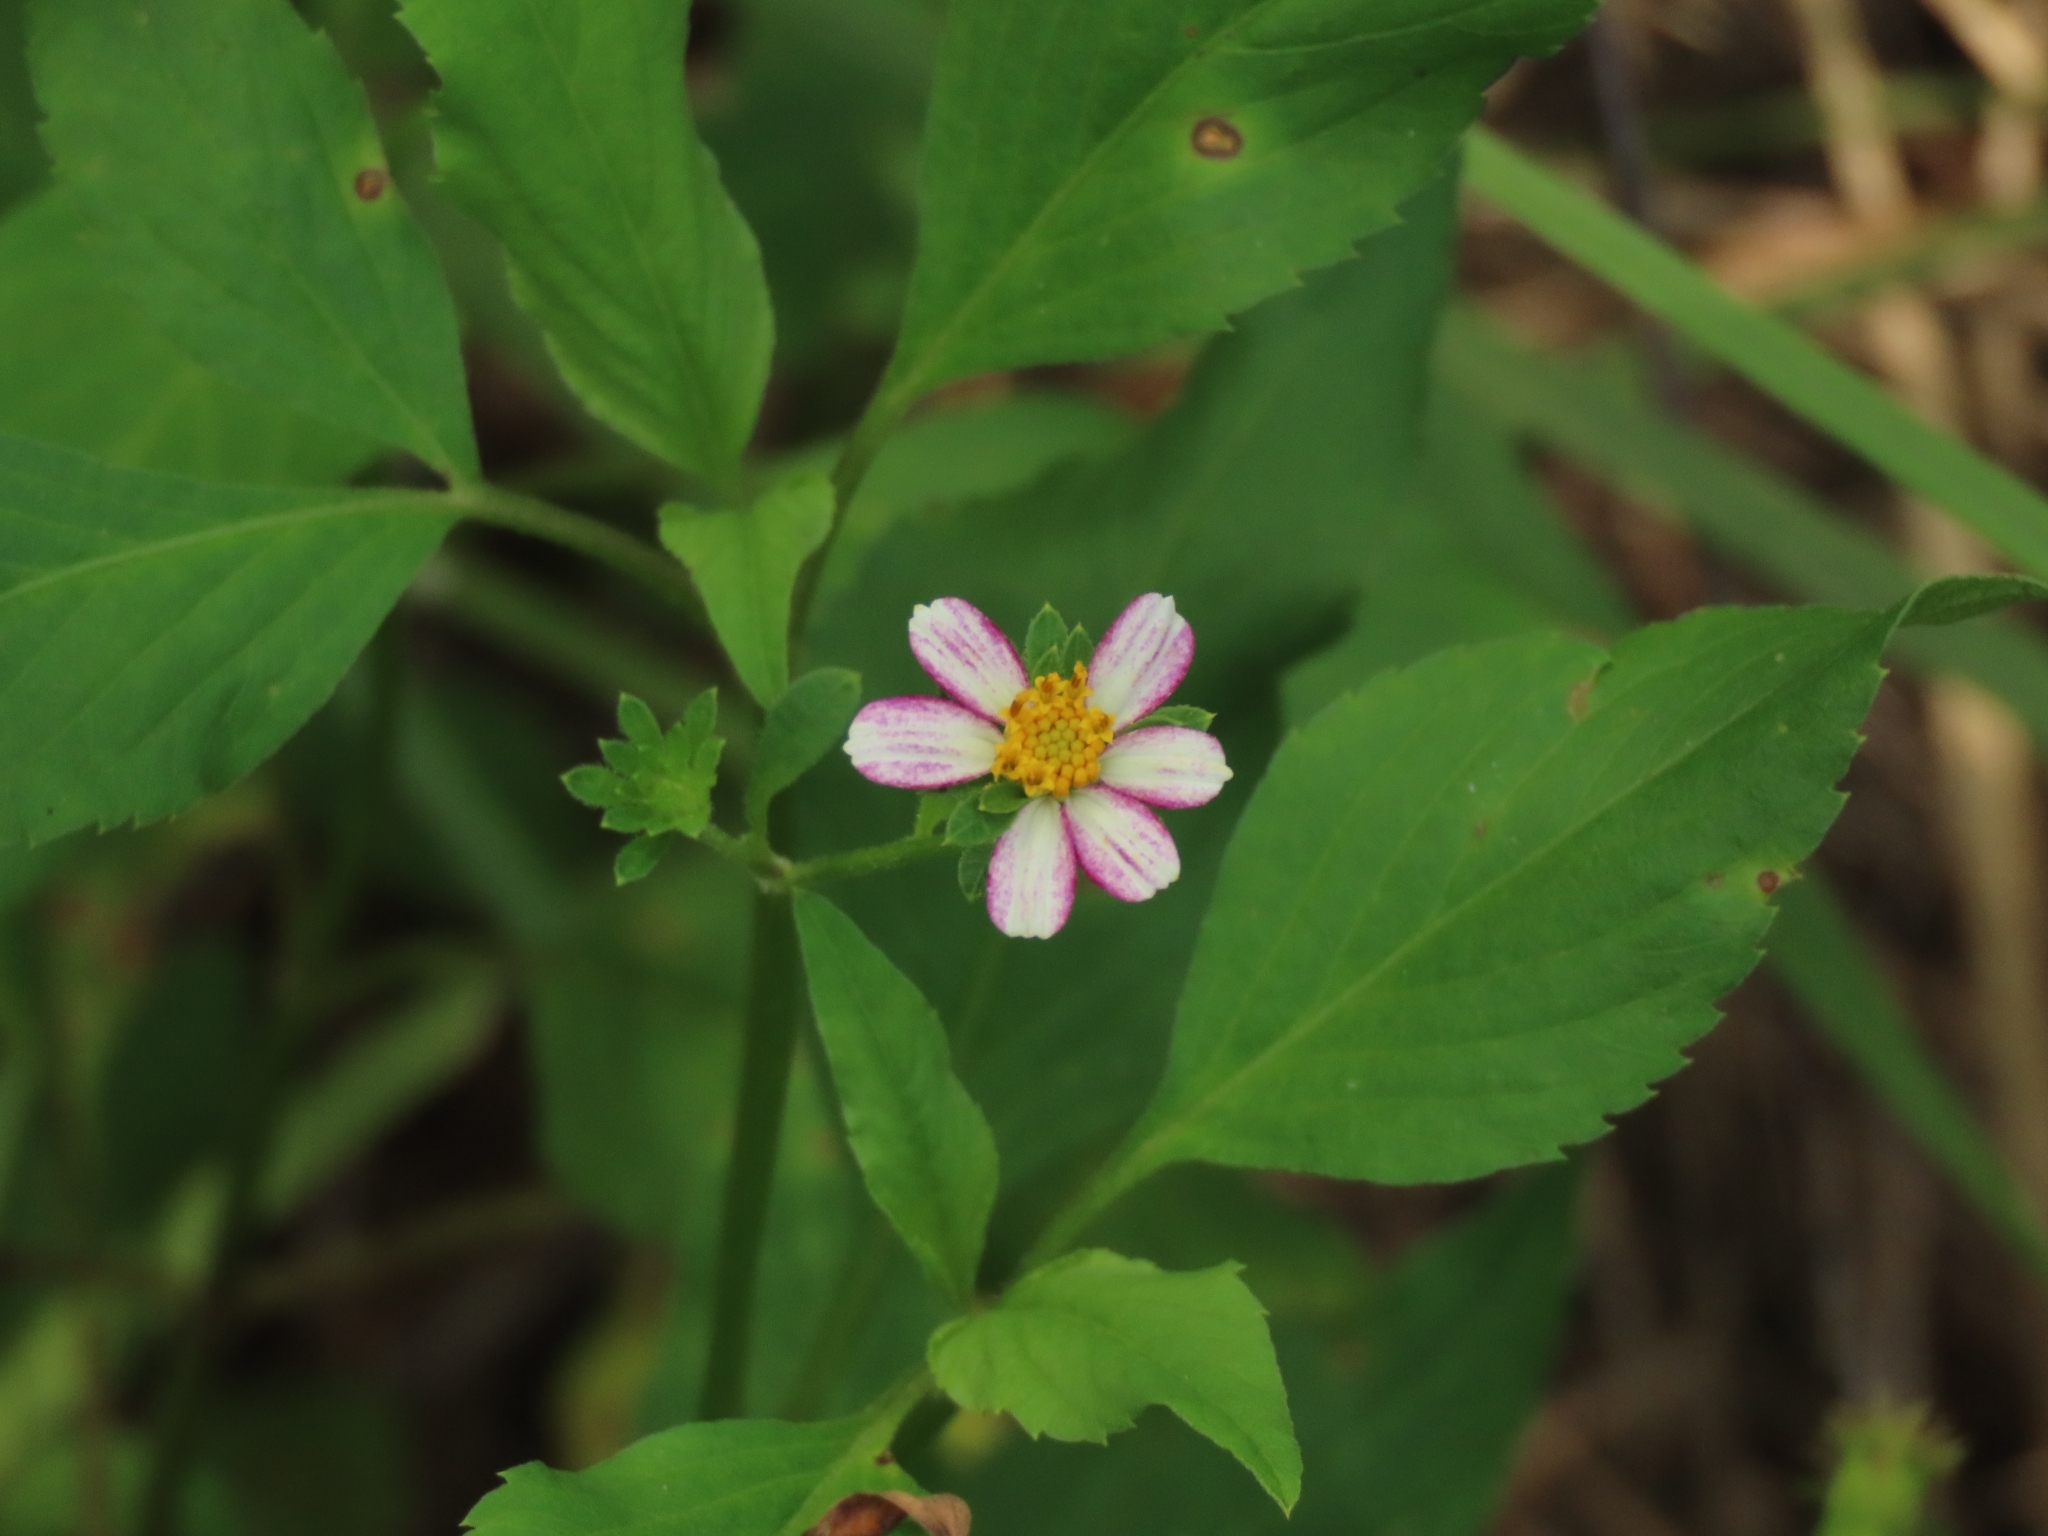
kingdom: Plantae
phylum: Tracheophyta
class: Magnoliopsida
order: Asterales
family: Asteraceae
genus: Bidens
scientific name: Bidens alba
